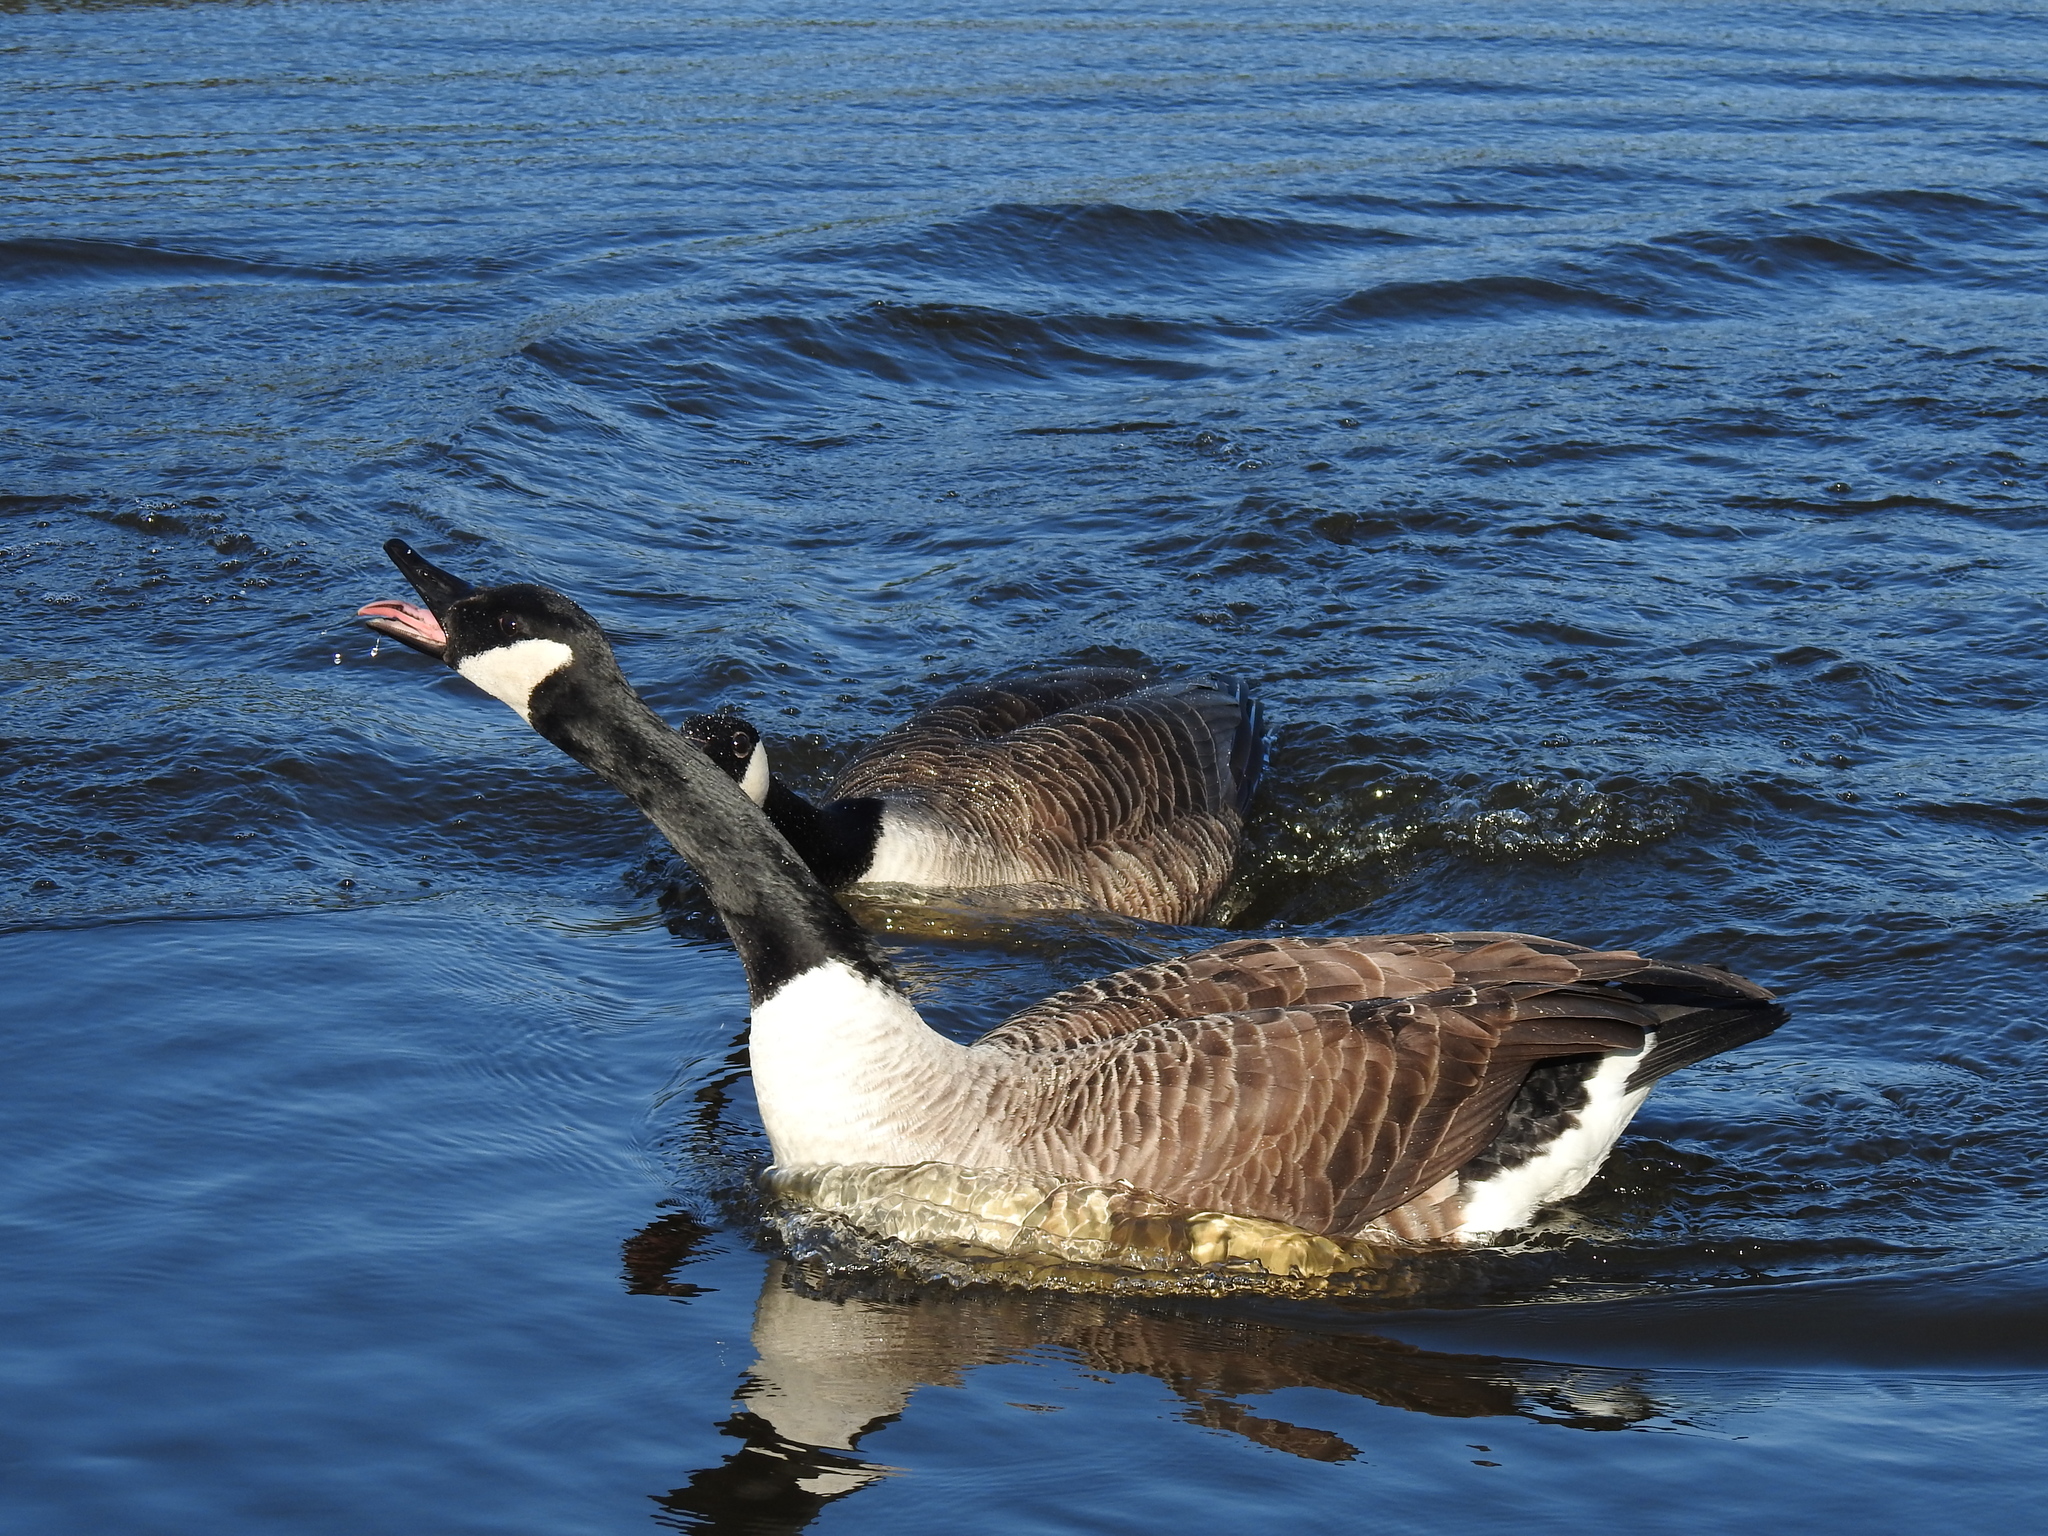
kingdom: Animalia
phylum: Chordata
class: Aves
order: Anseriformes
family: Anatidae
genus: Branta
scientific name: Branta canadensis
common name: Canada goose
